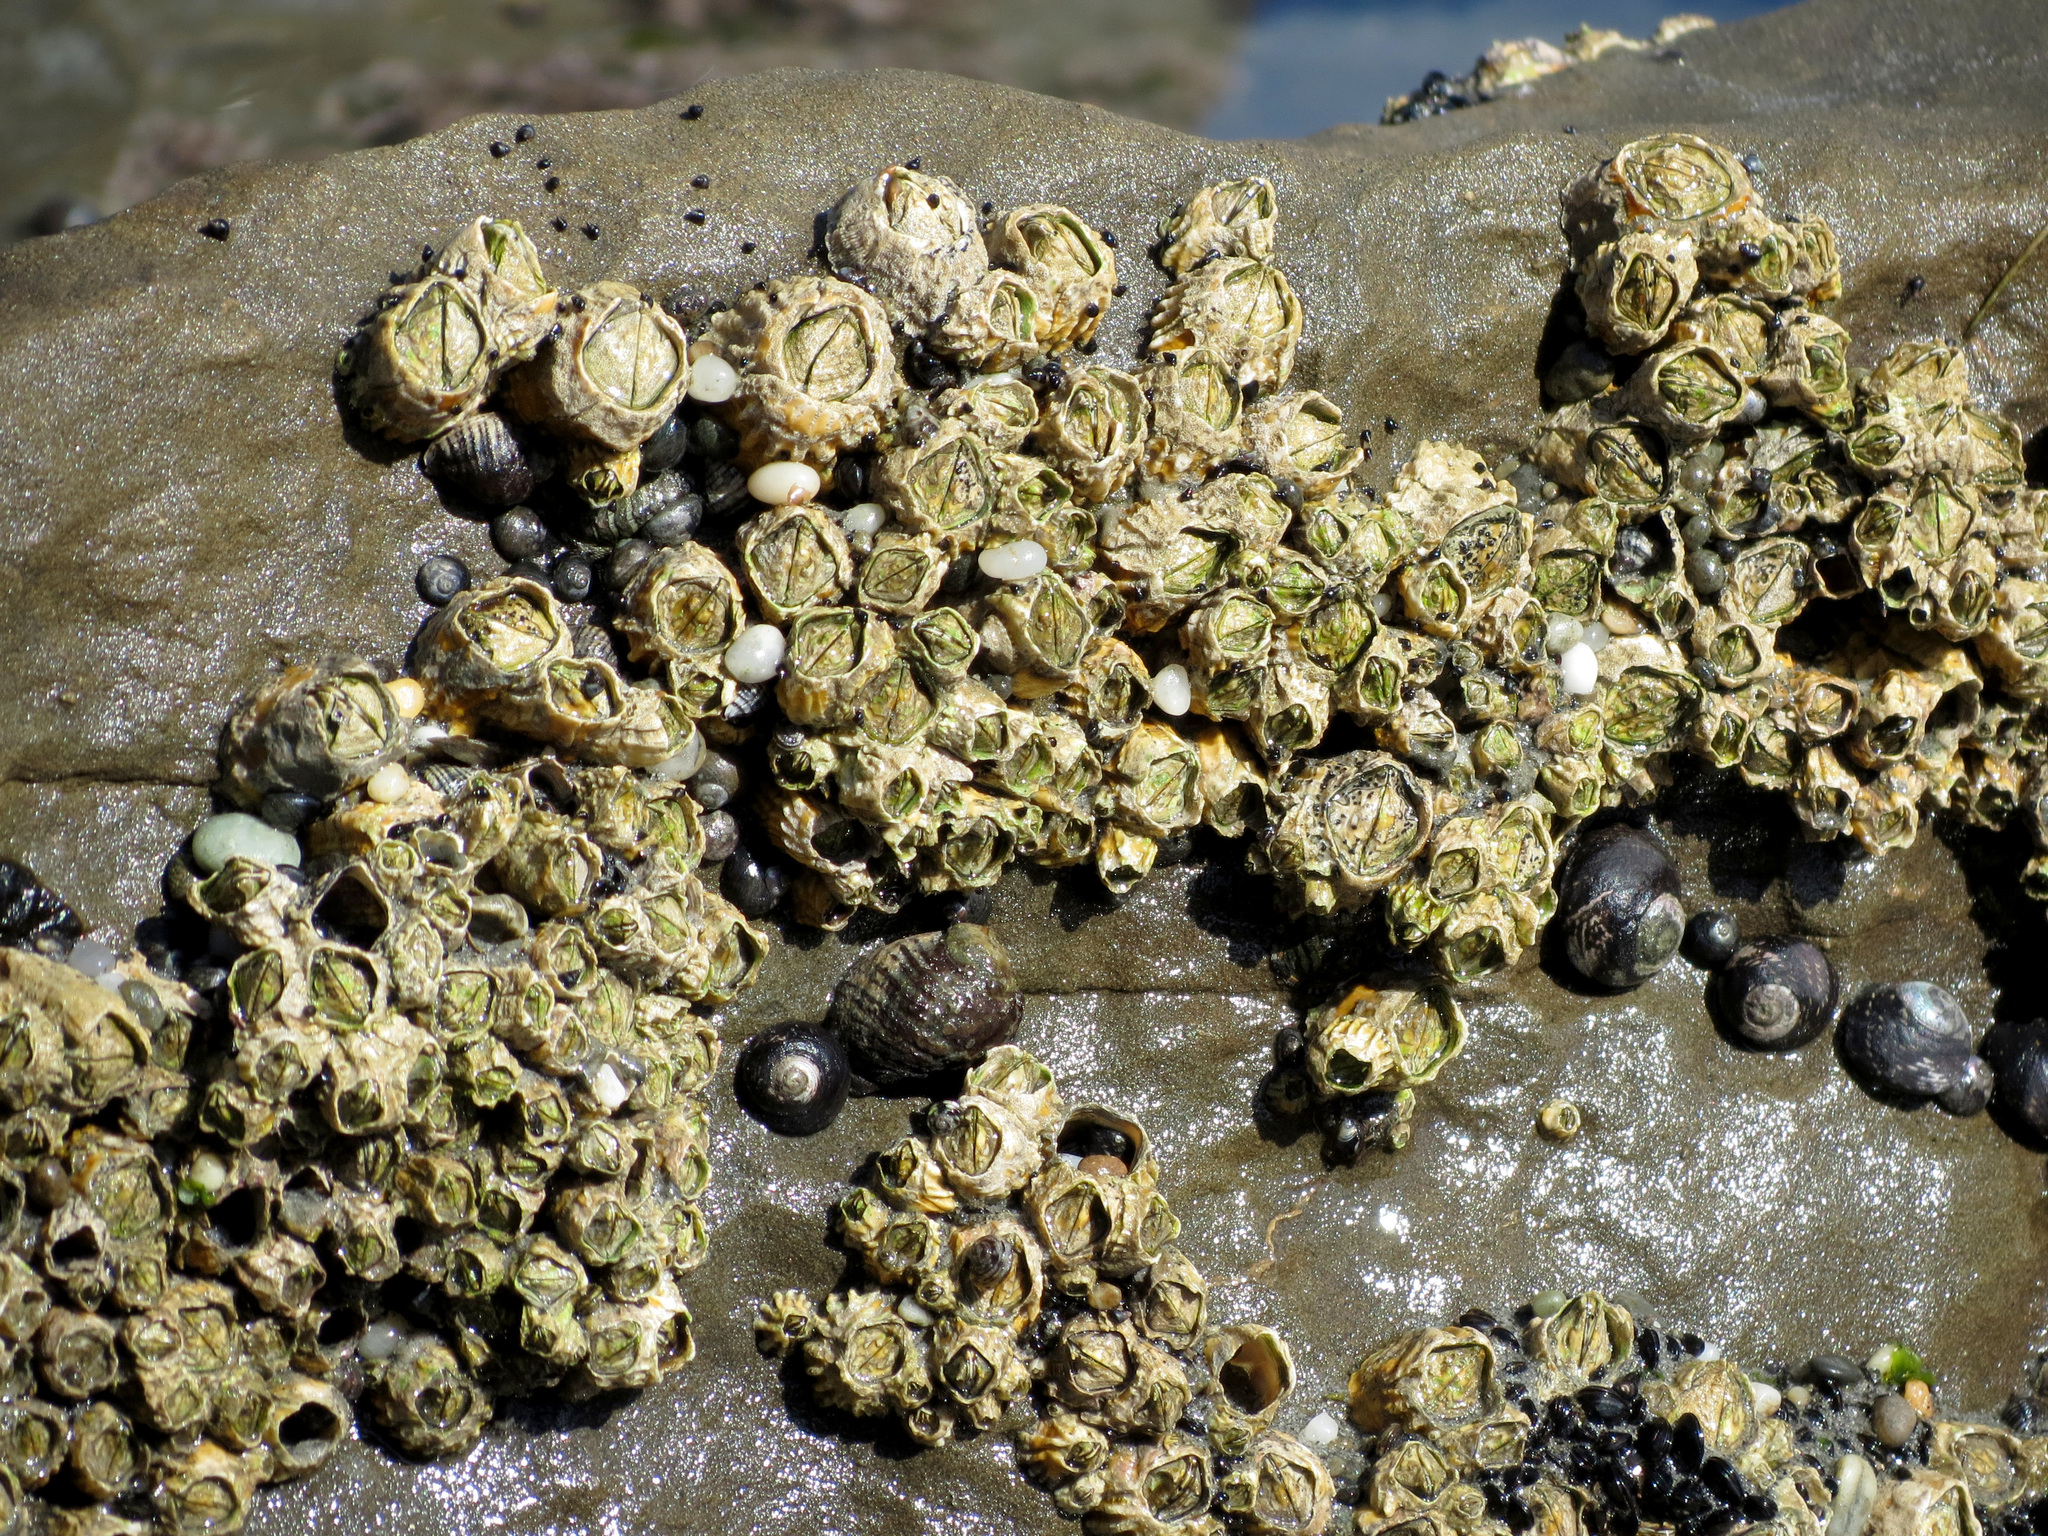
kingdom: Animalia
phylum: Arthropoda
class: Maxillopoda
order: Sessilia
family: Tetraclitidae
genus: Epopella
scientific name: Epopella plicata
